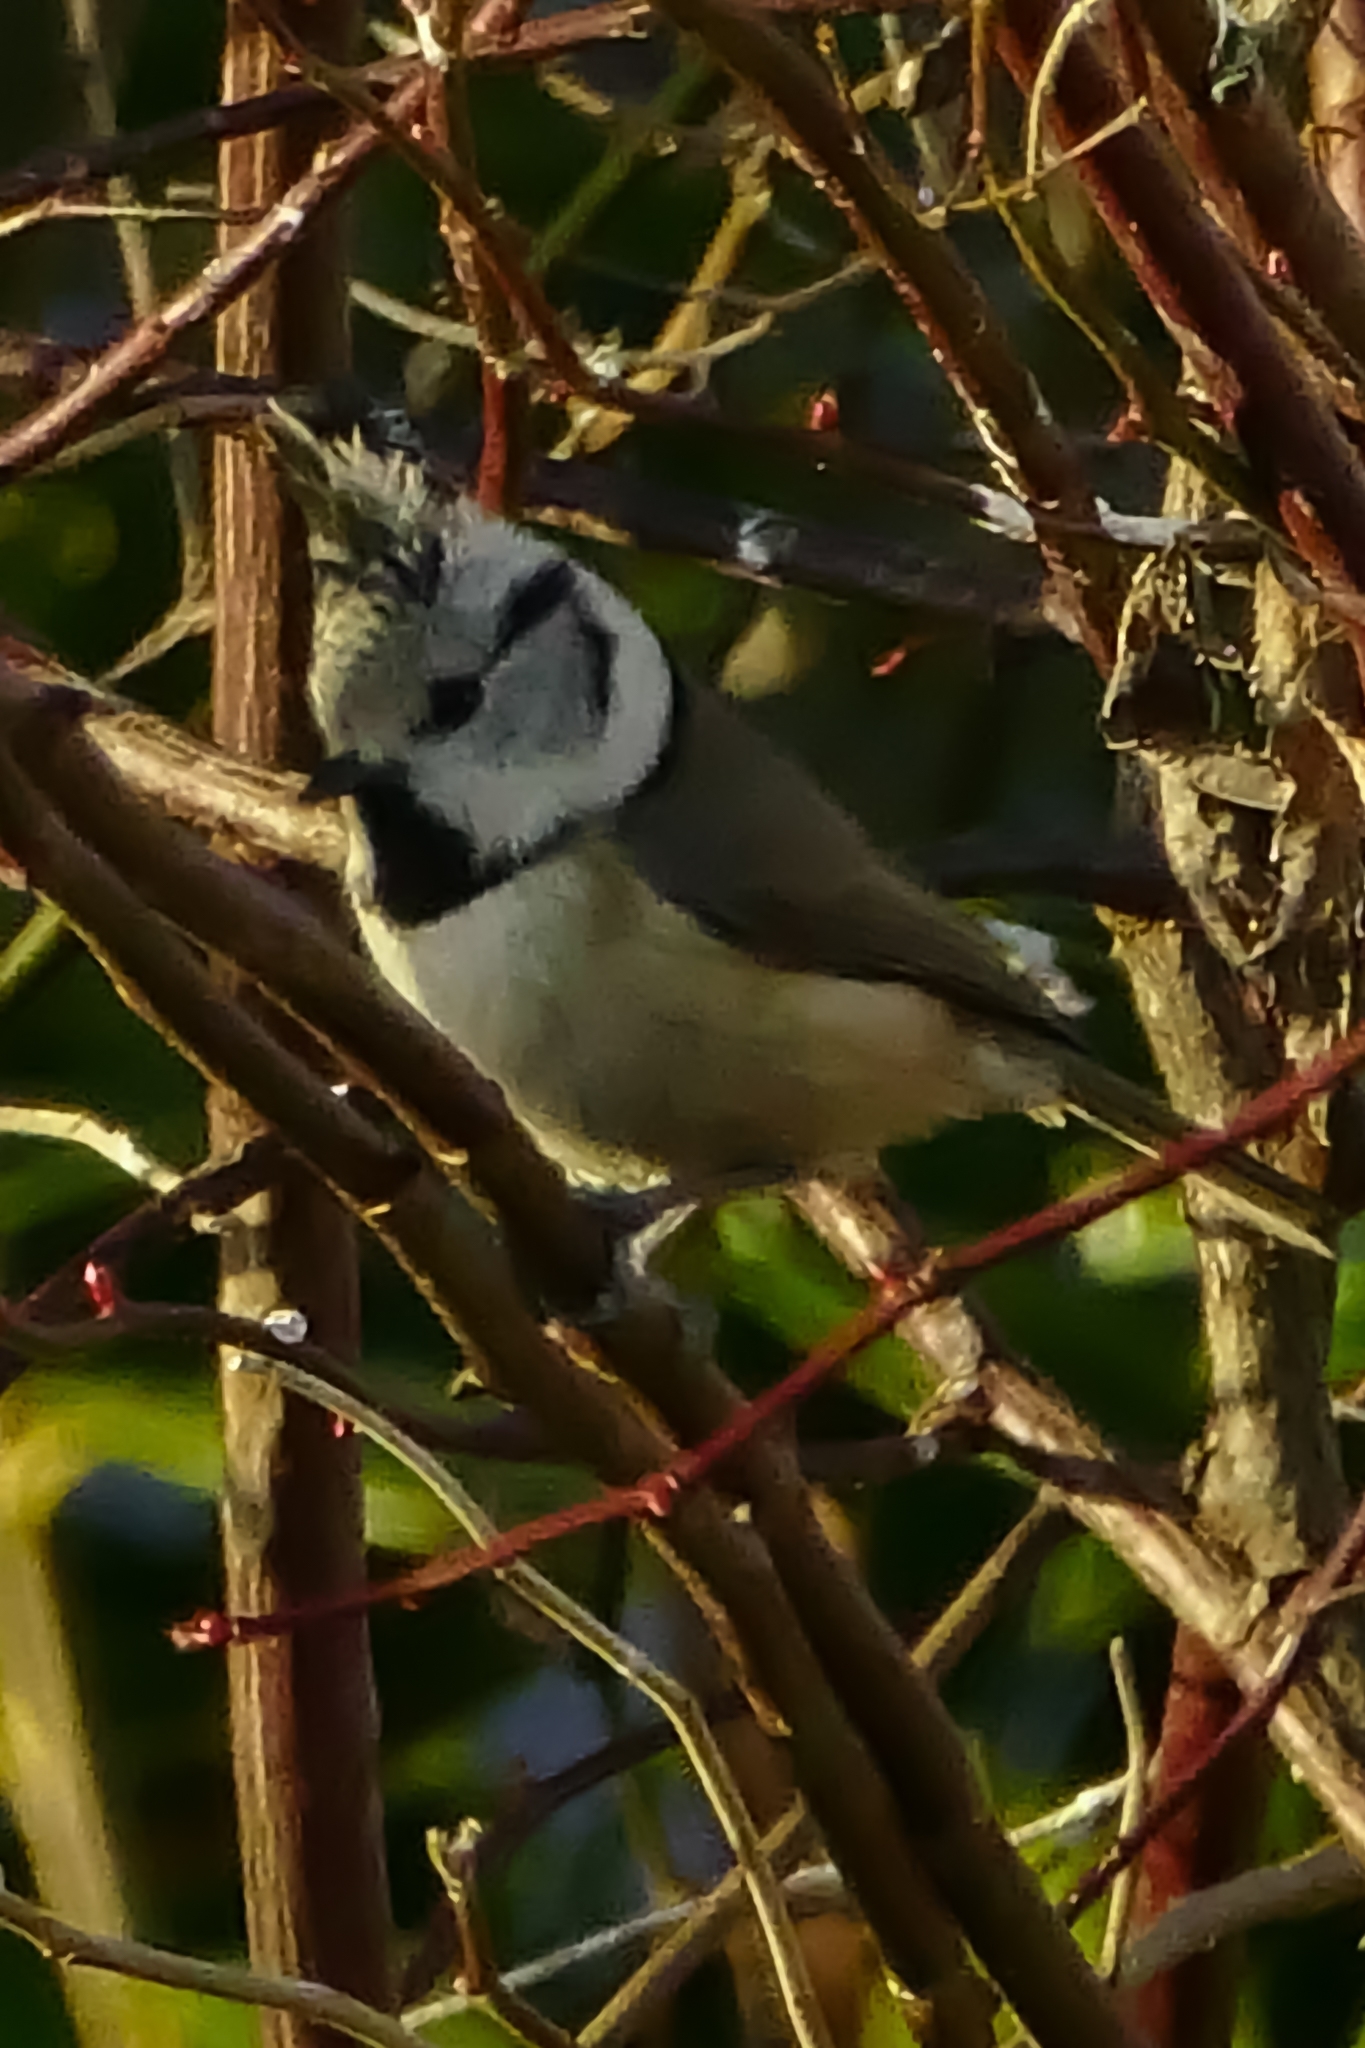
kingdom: Animalia
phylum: Chordata
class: Aves
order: Passeriformes
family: Paridae
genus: Lophophanes
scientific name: Lophophanes cristatus
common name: European crested tit
